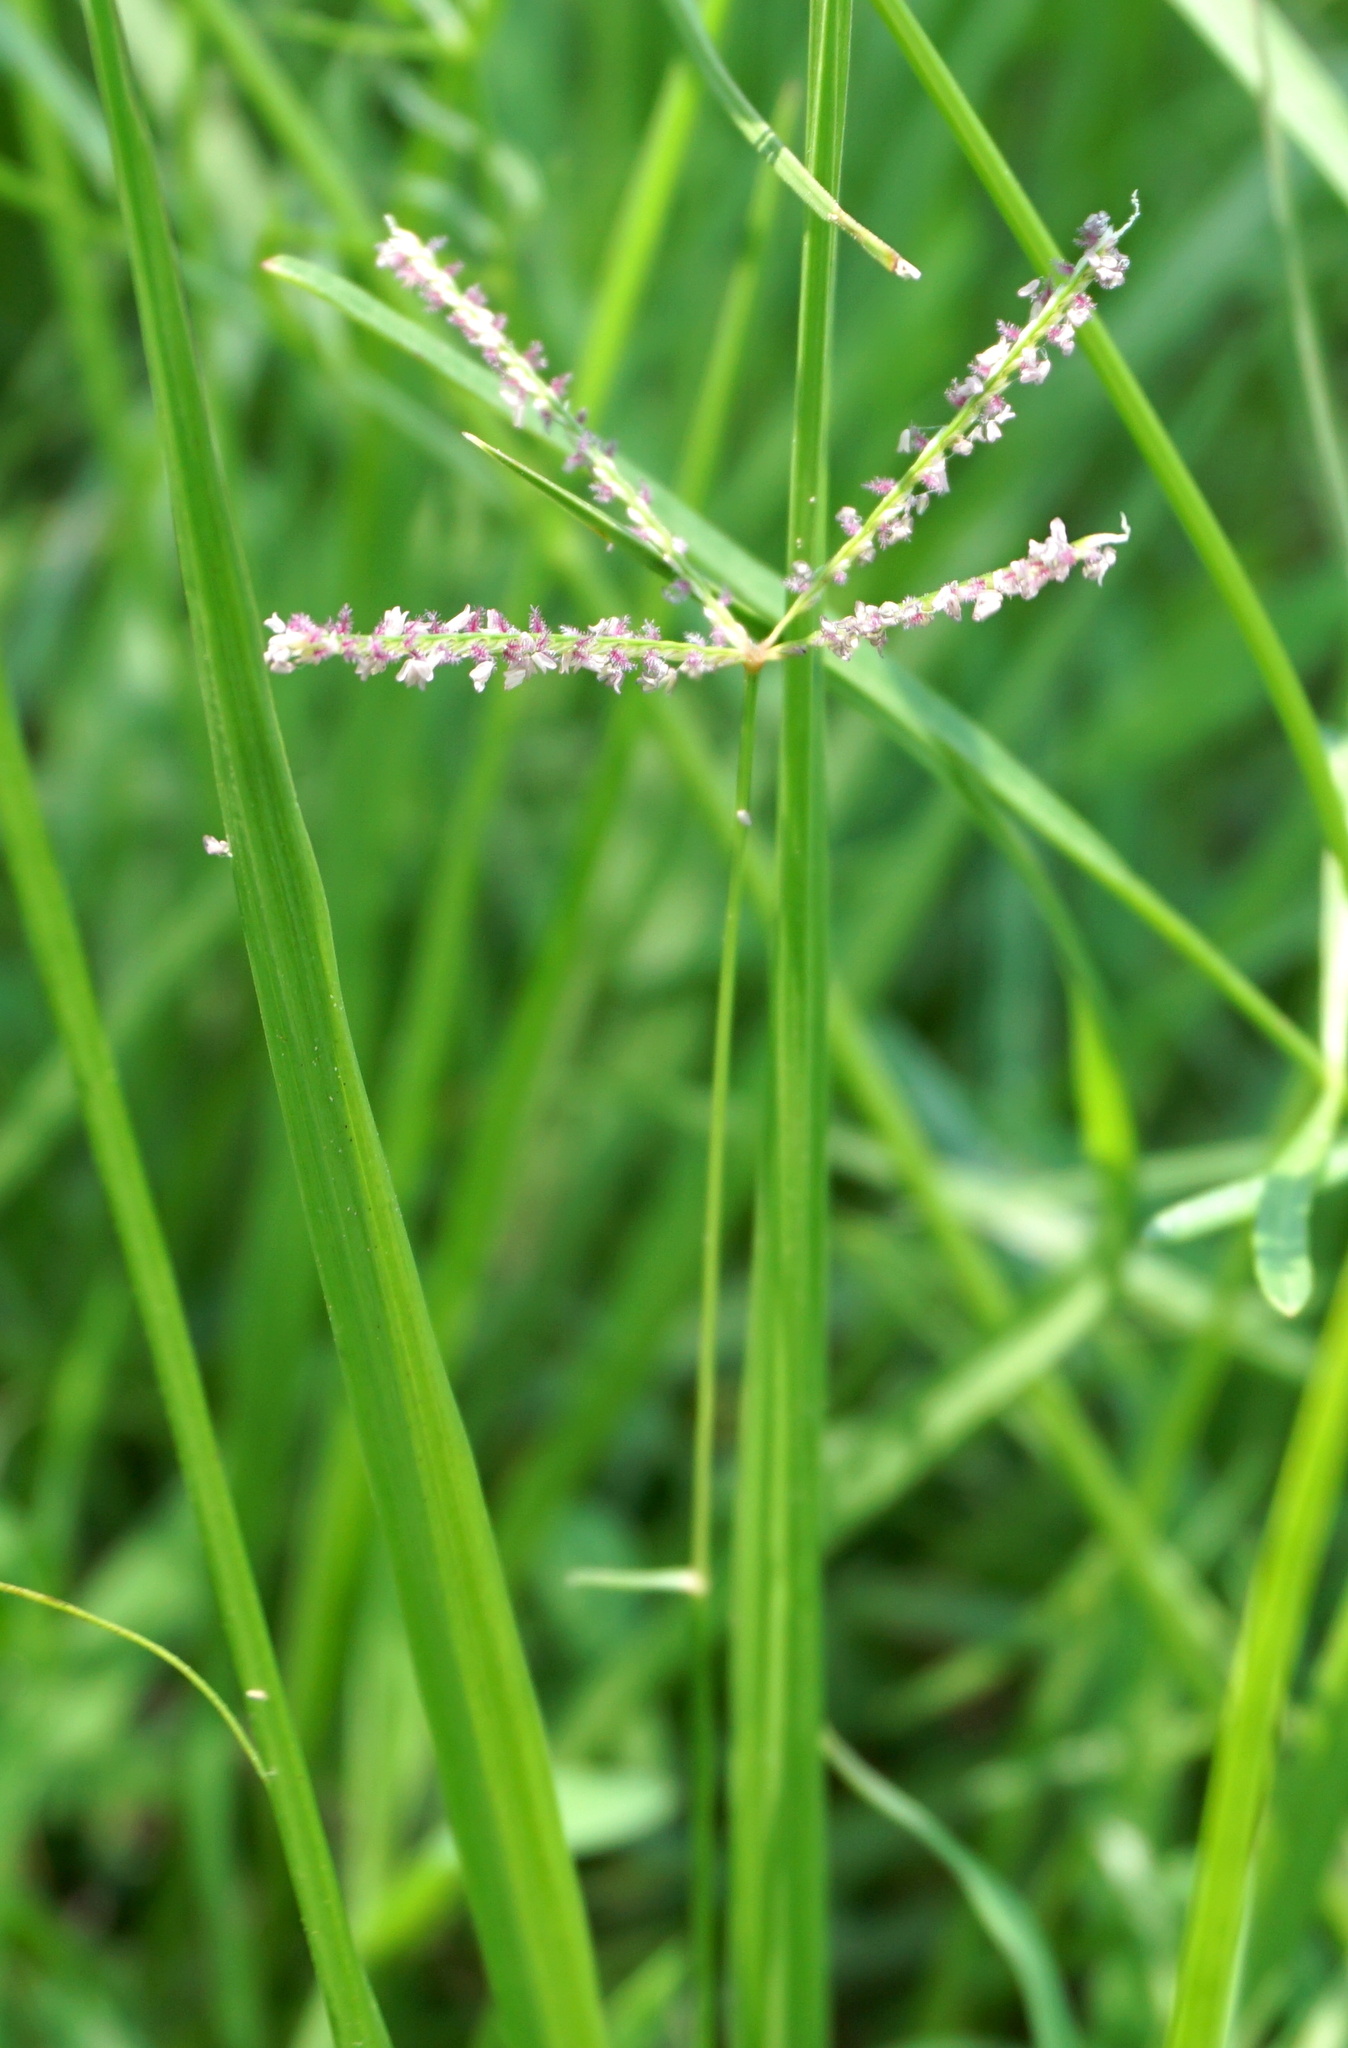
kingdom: Plantae
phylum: Tracheophyta
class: Liliopsida
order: Poales
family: Poaceae
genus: Cynodon
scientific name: Cynodon dactylon
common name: Bermuda grass
